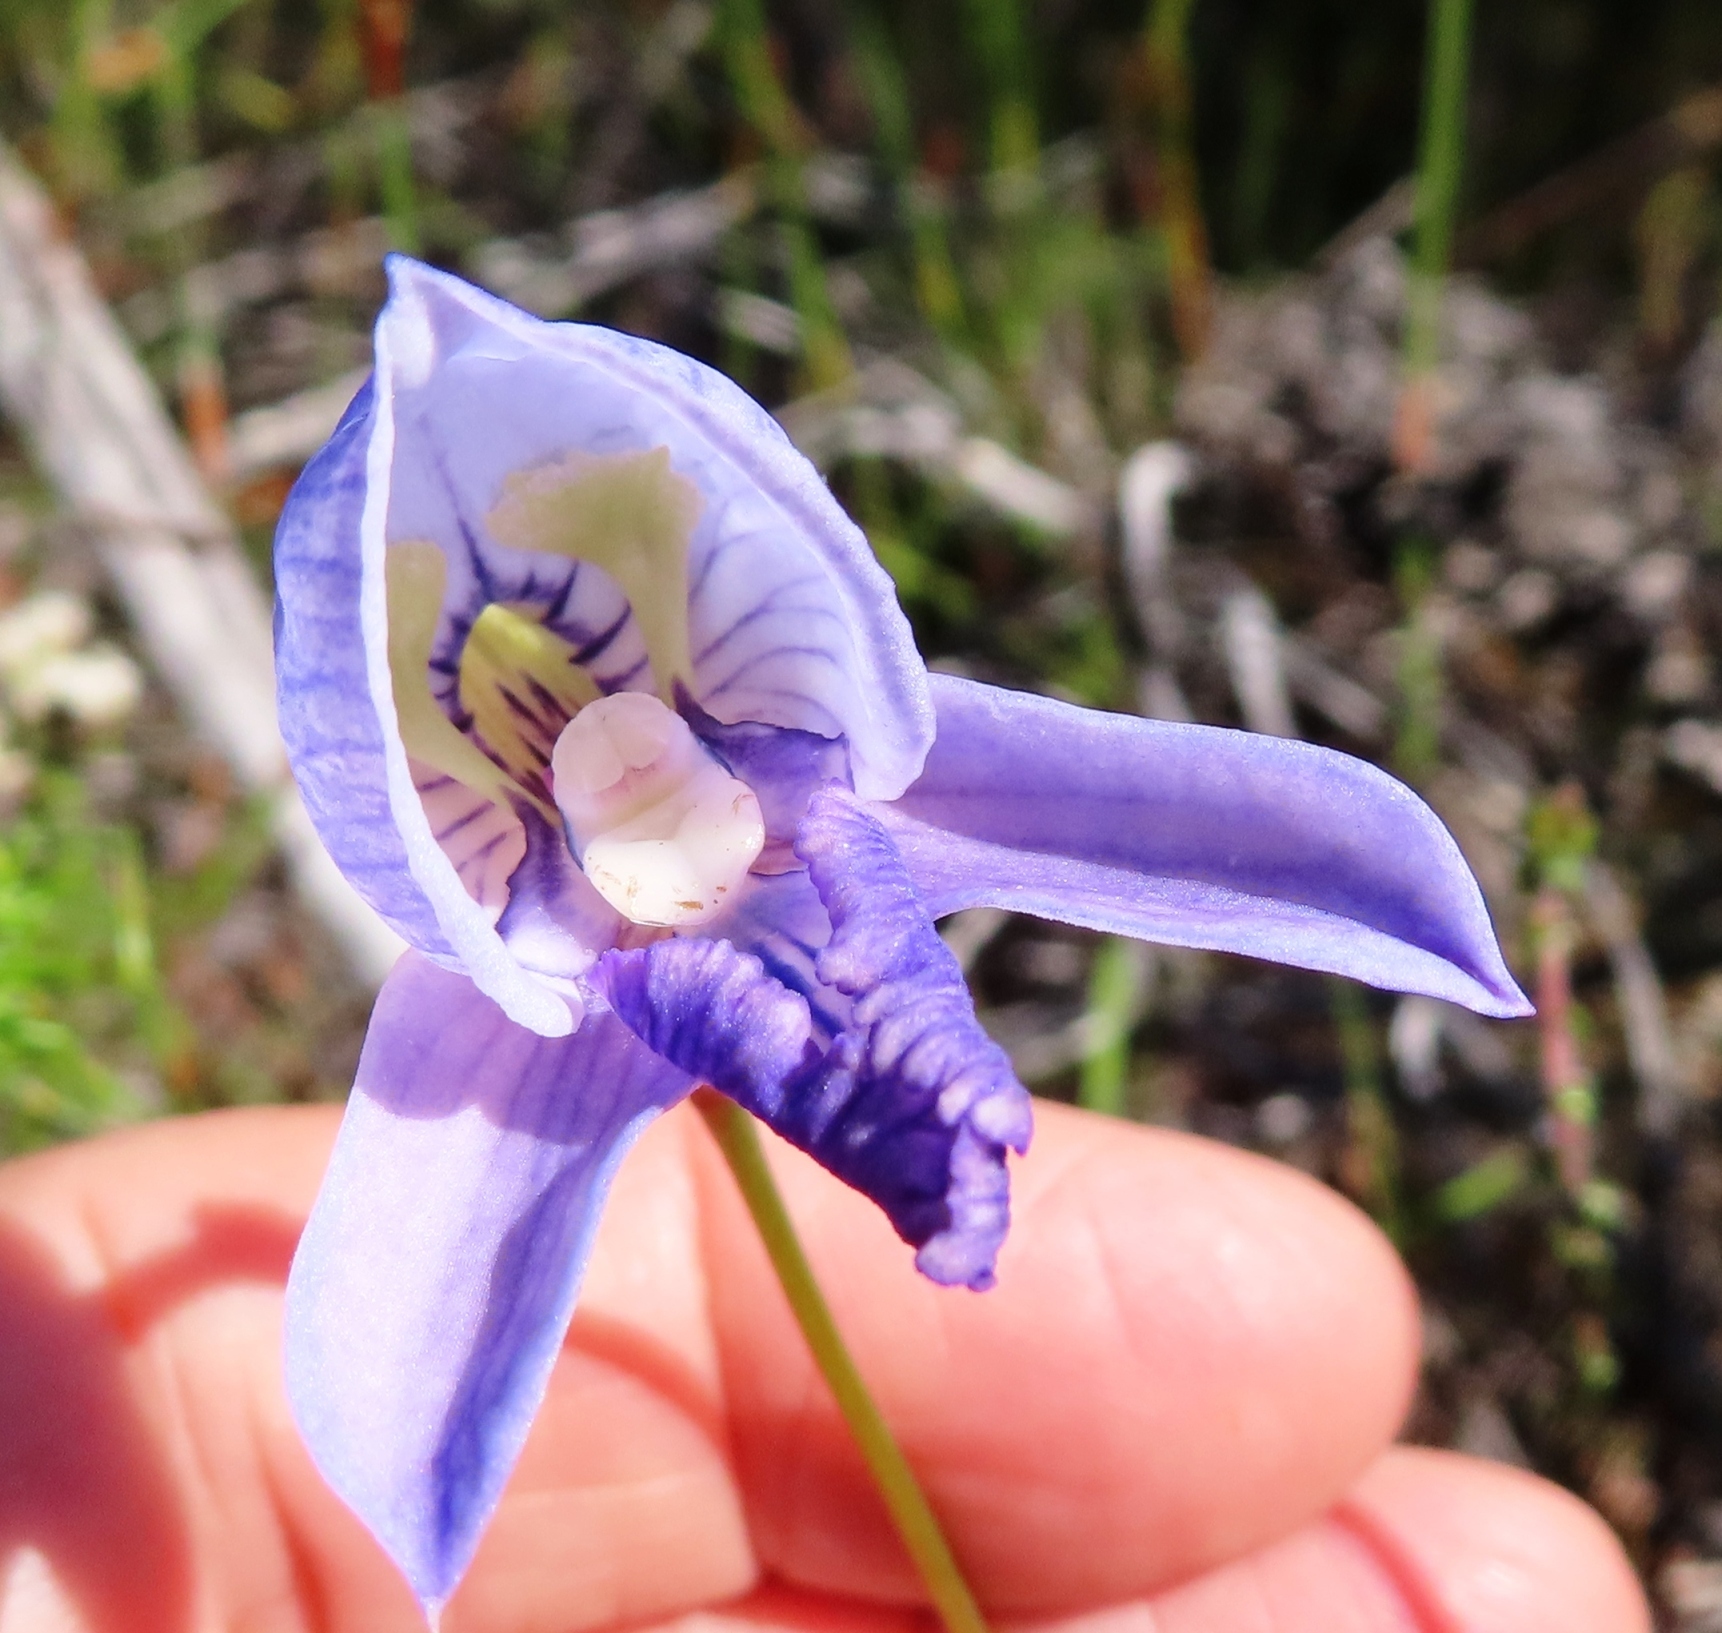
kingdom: Plantae
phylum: Tracheophyta
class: Liliopsida
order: Asparagales
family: Orchidaceae
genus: Disa
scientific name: Disa purpurascens
